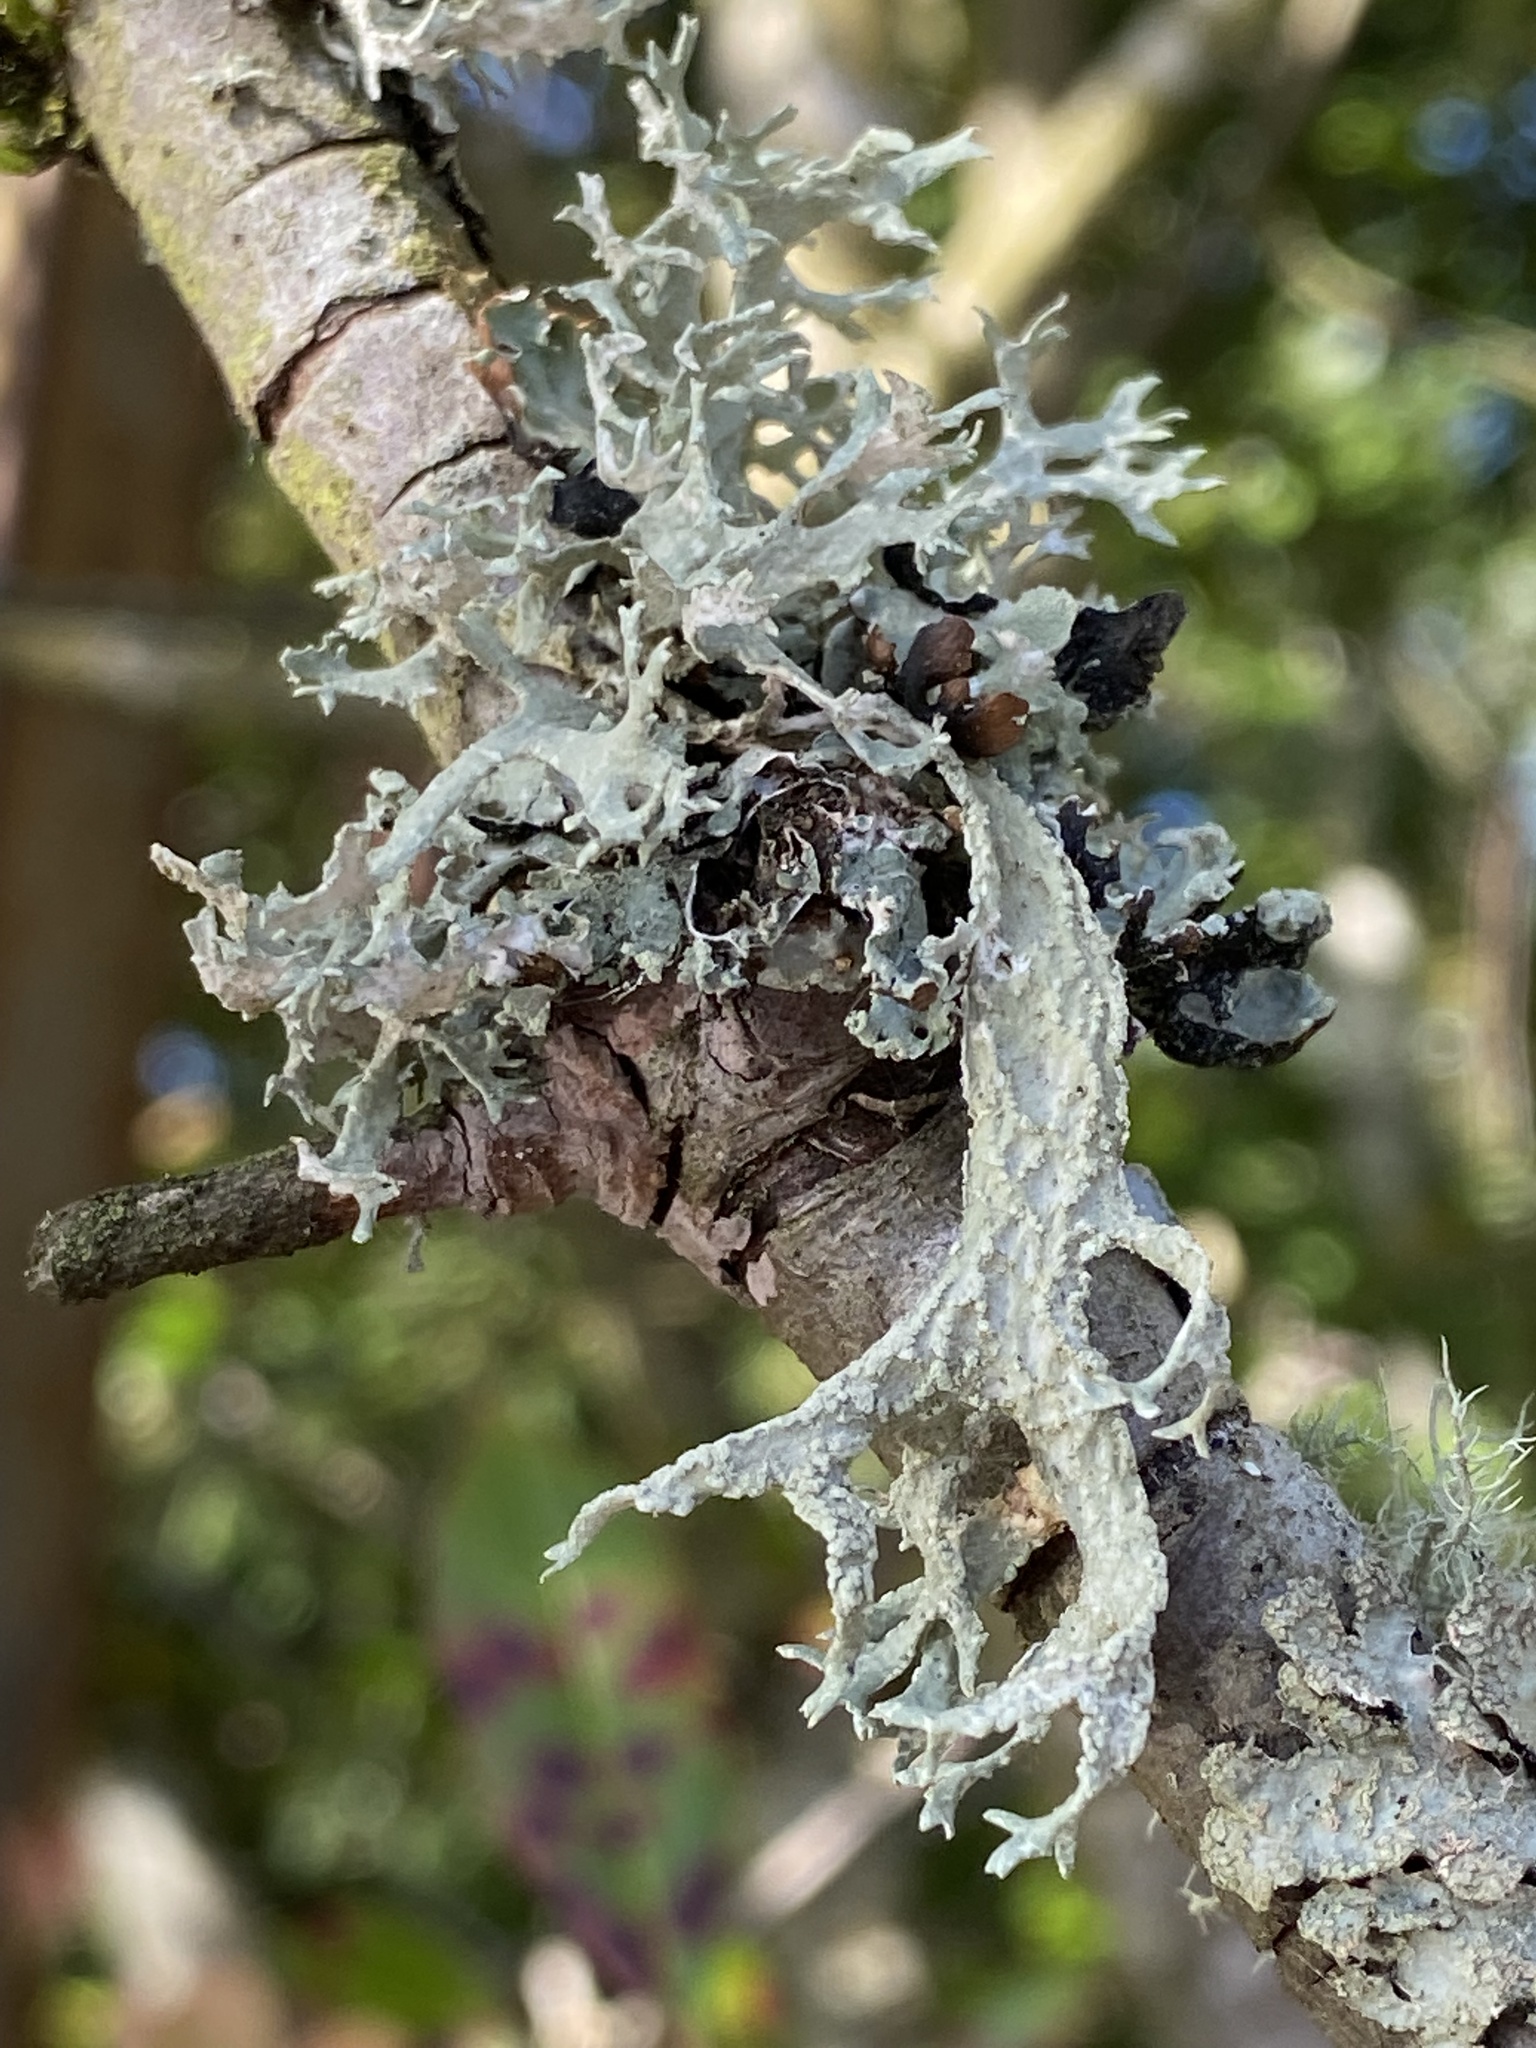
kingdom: Fungi
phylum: Ascomycota
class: Lecanoromycetes
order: Lecanorales
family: Parmeliaceae
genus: Evernia
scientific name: Evernia prunastri
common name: Oak moss
